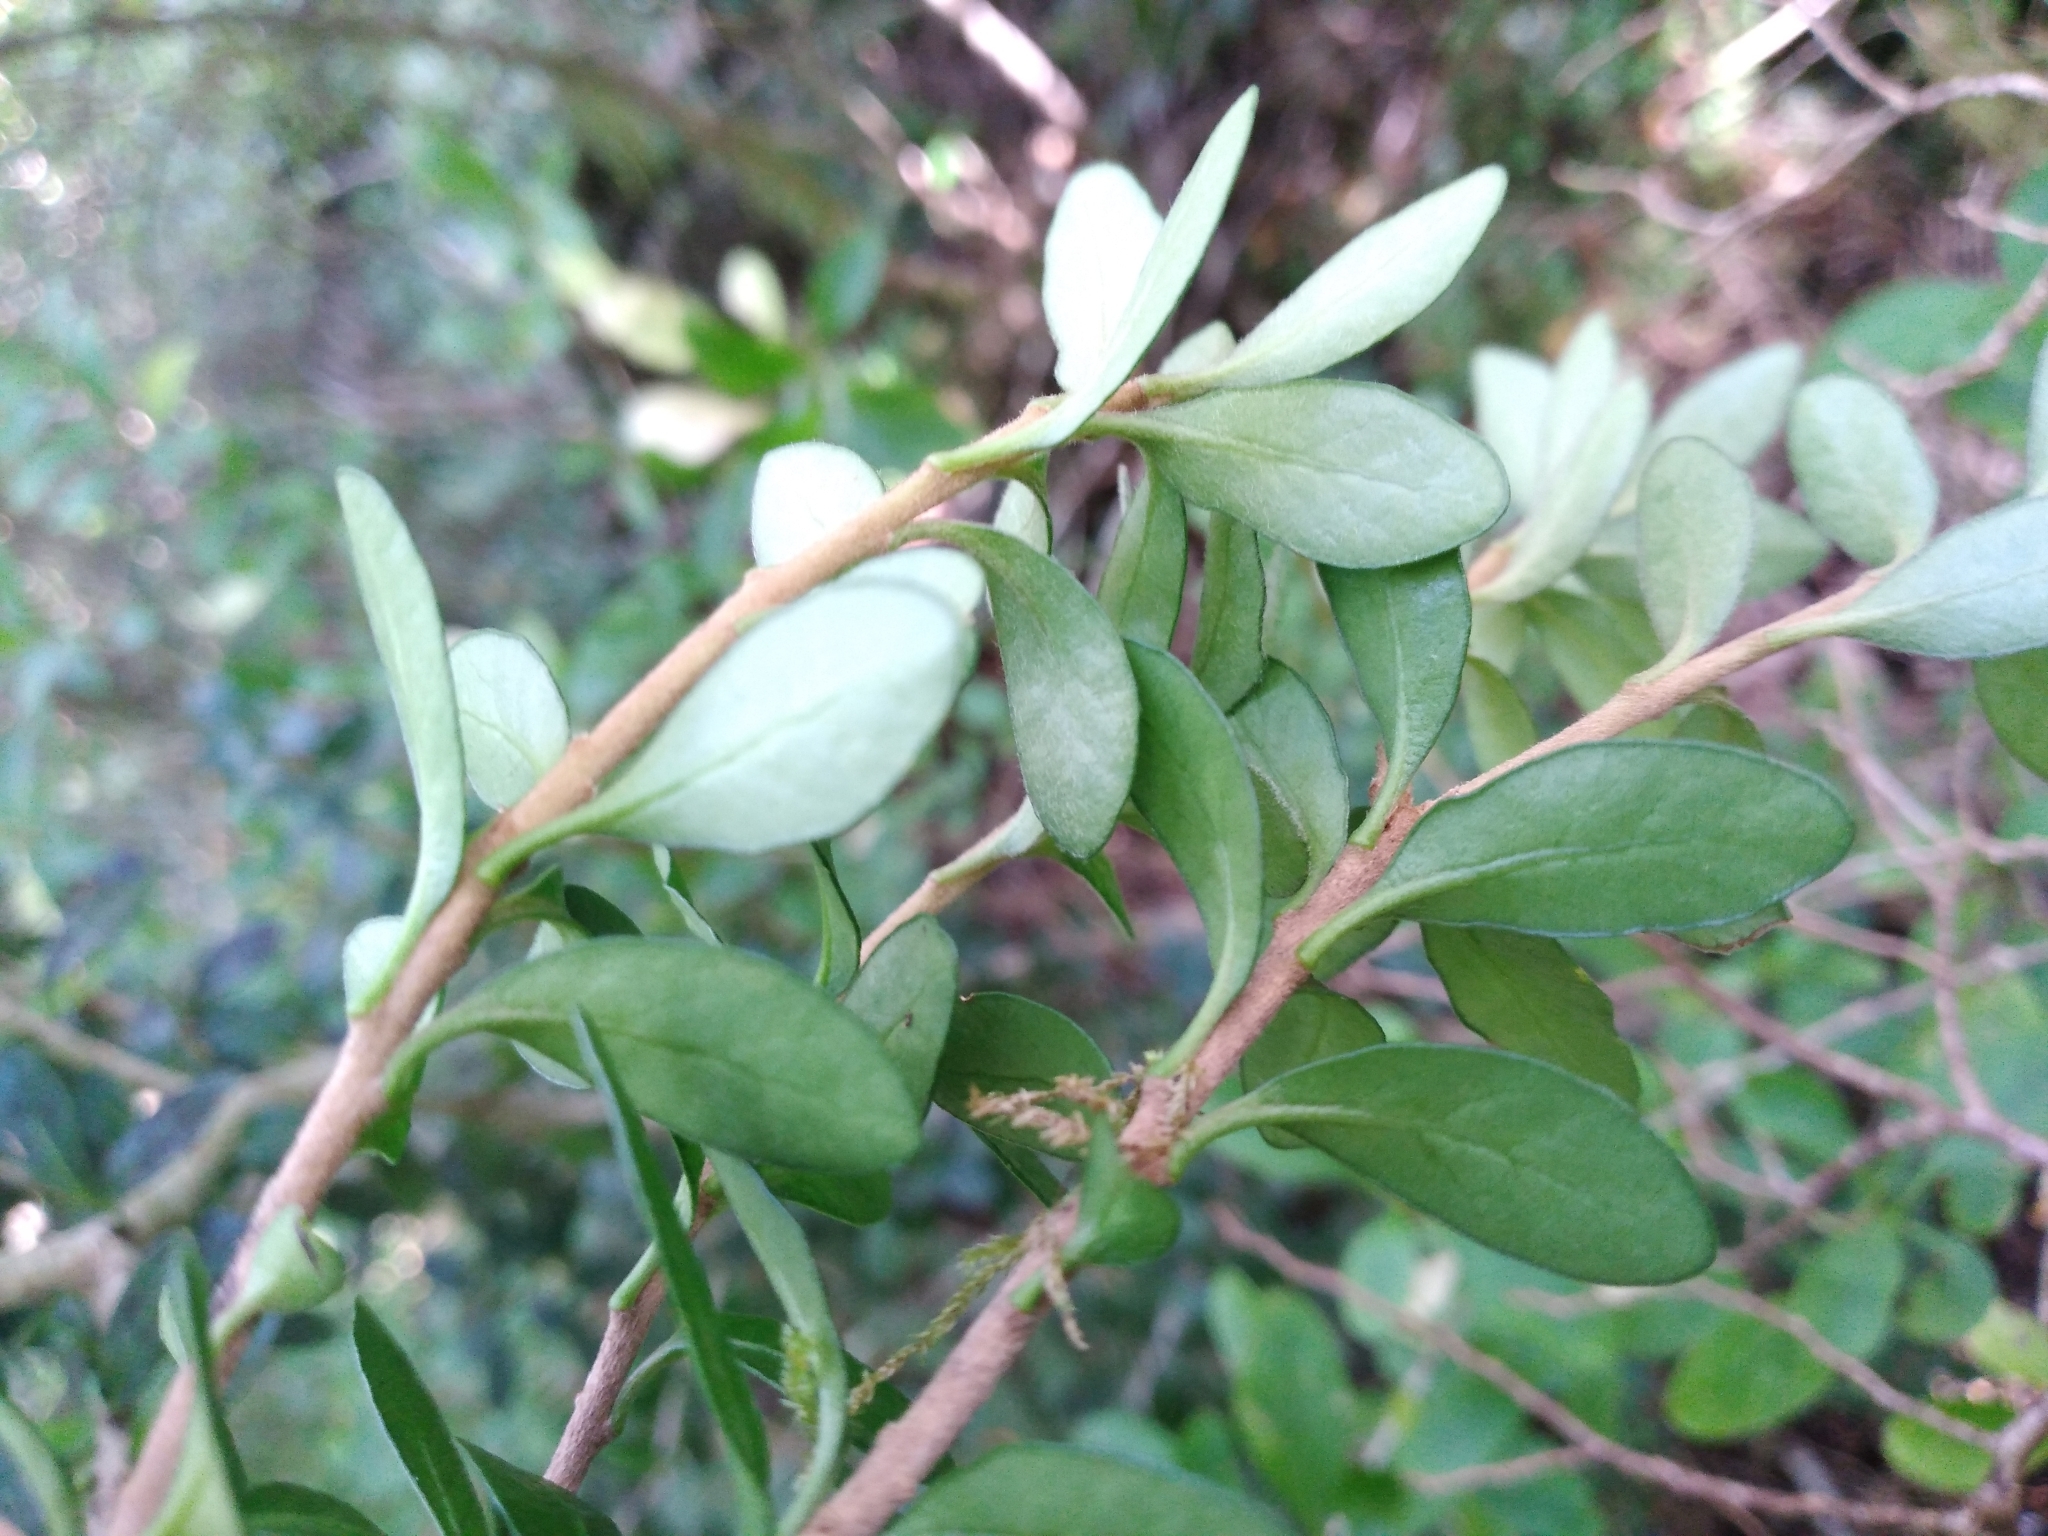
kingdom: Plantae
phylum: Tracheophyta
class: Magnoliopsida
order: Apiales
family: Pittosporaceae
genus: Pittosporum
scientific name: Pittosporum rigidum
